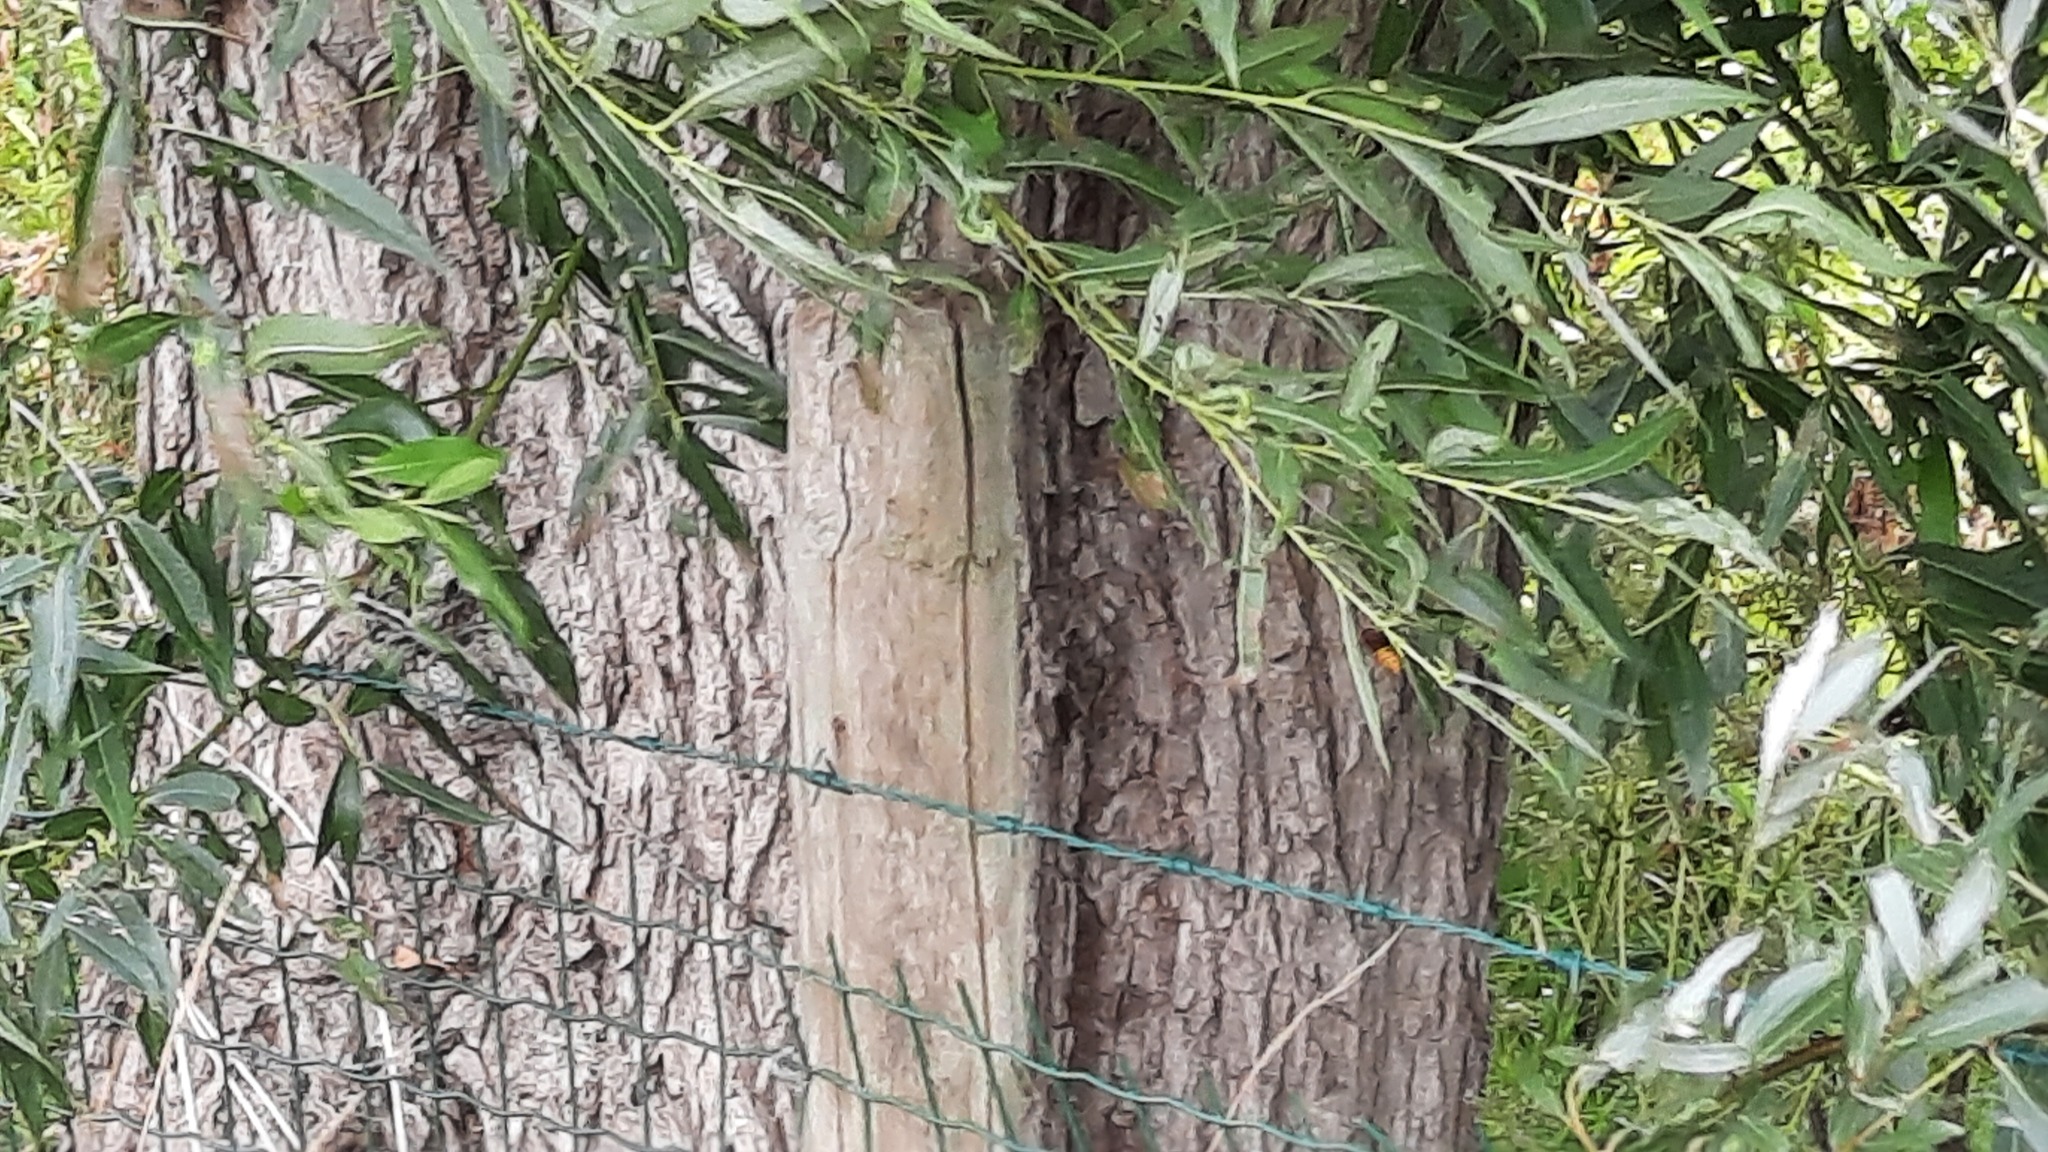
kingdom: Animalia
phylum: Arthropoda
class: Insecta
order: Hymenoptera
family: Vespidae
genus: Vespa
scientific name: Vespa crabro
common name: Hornet
